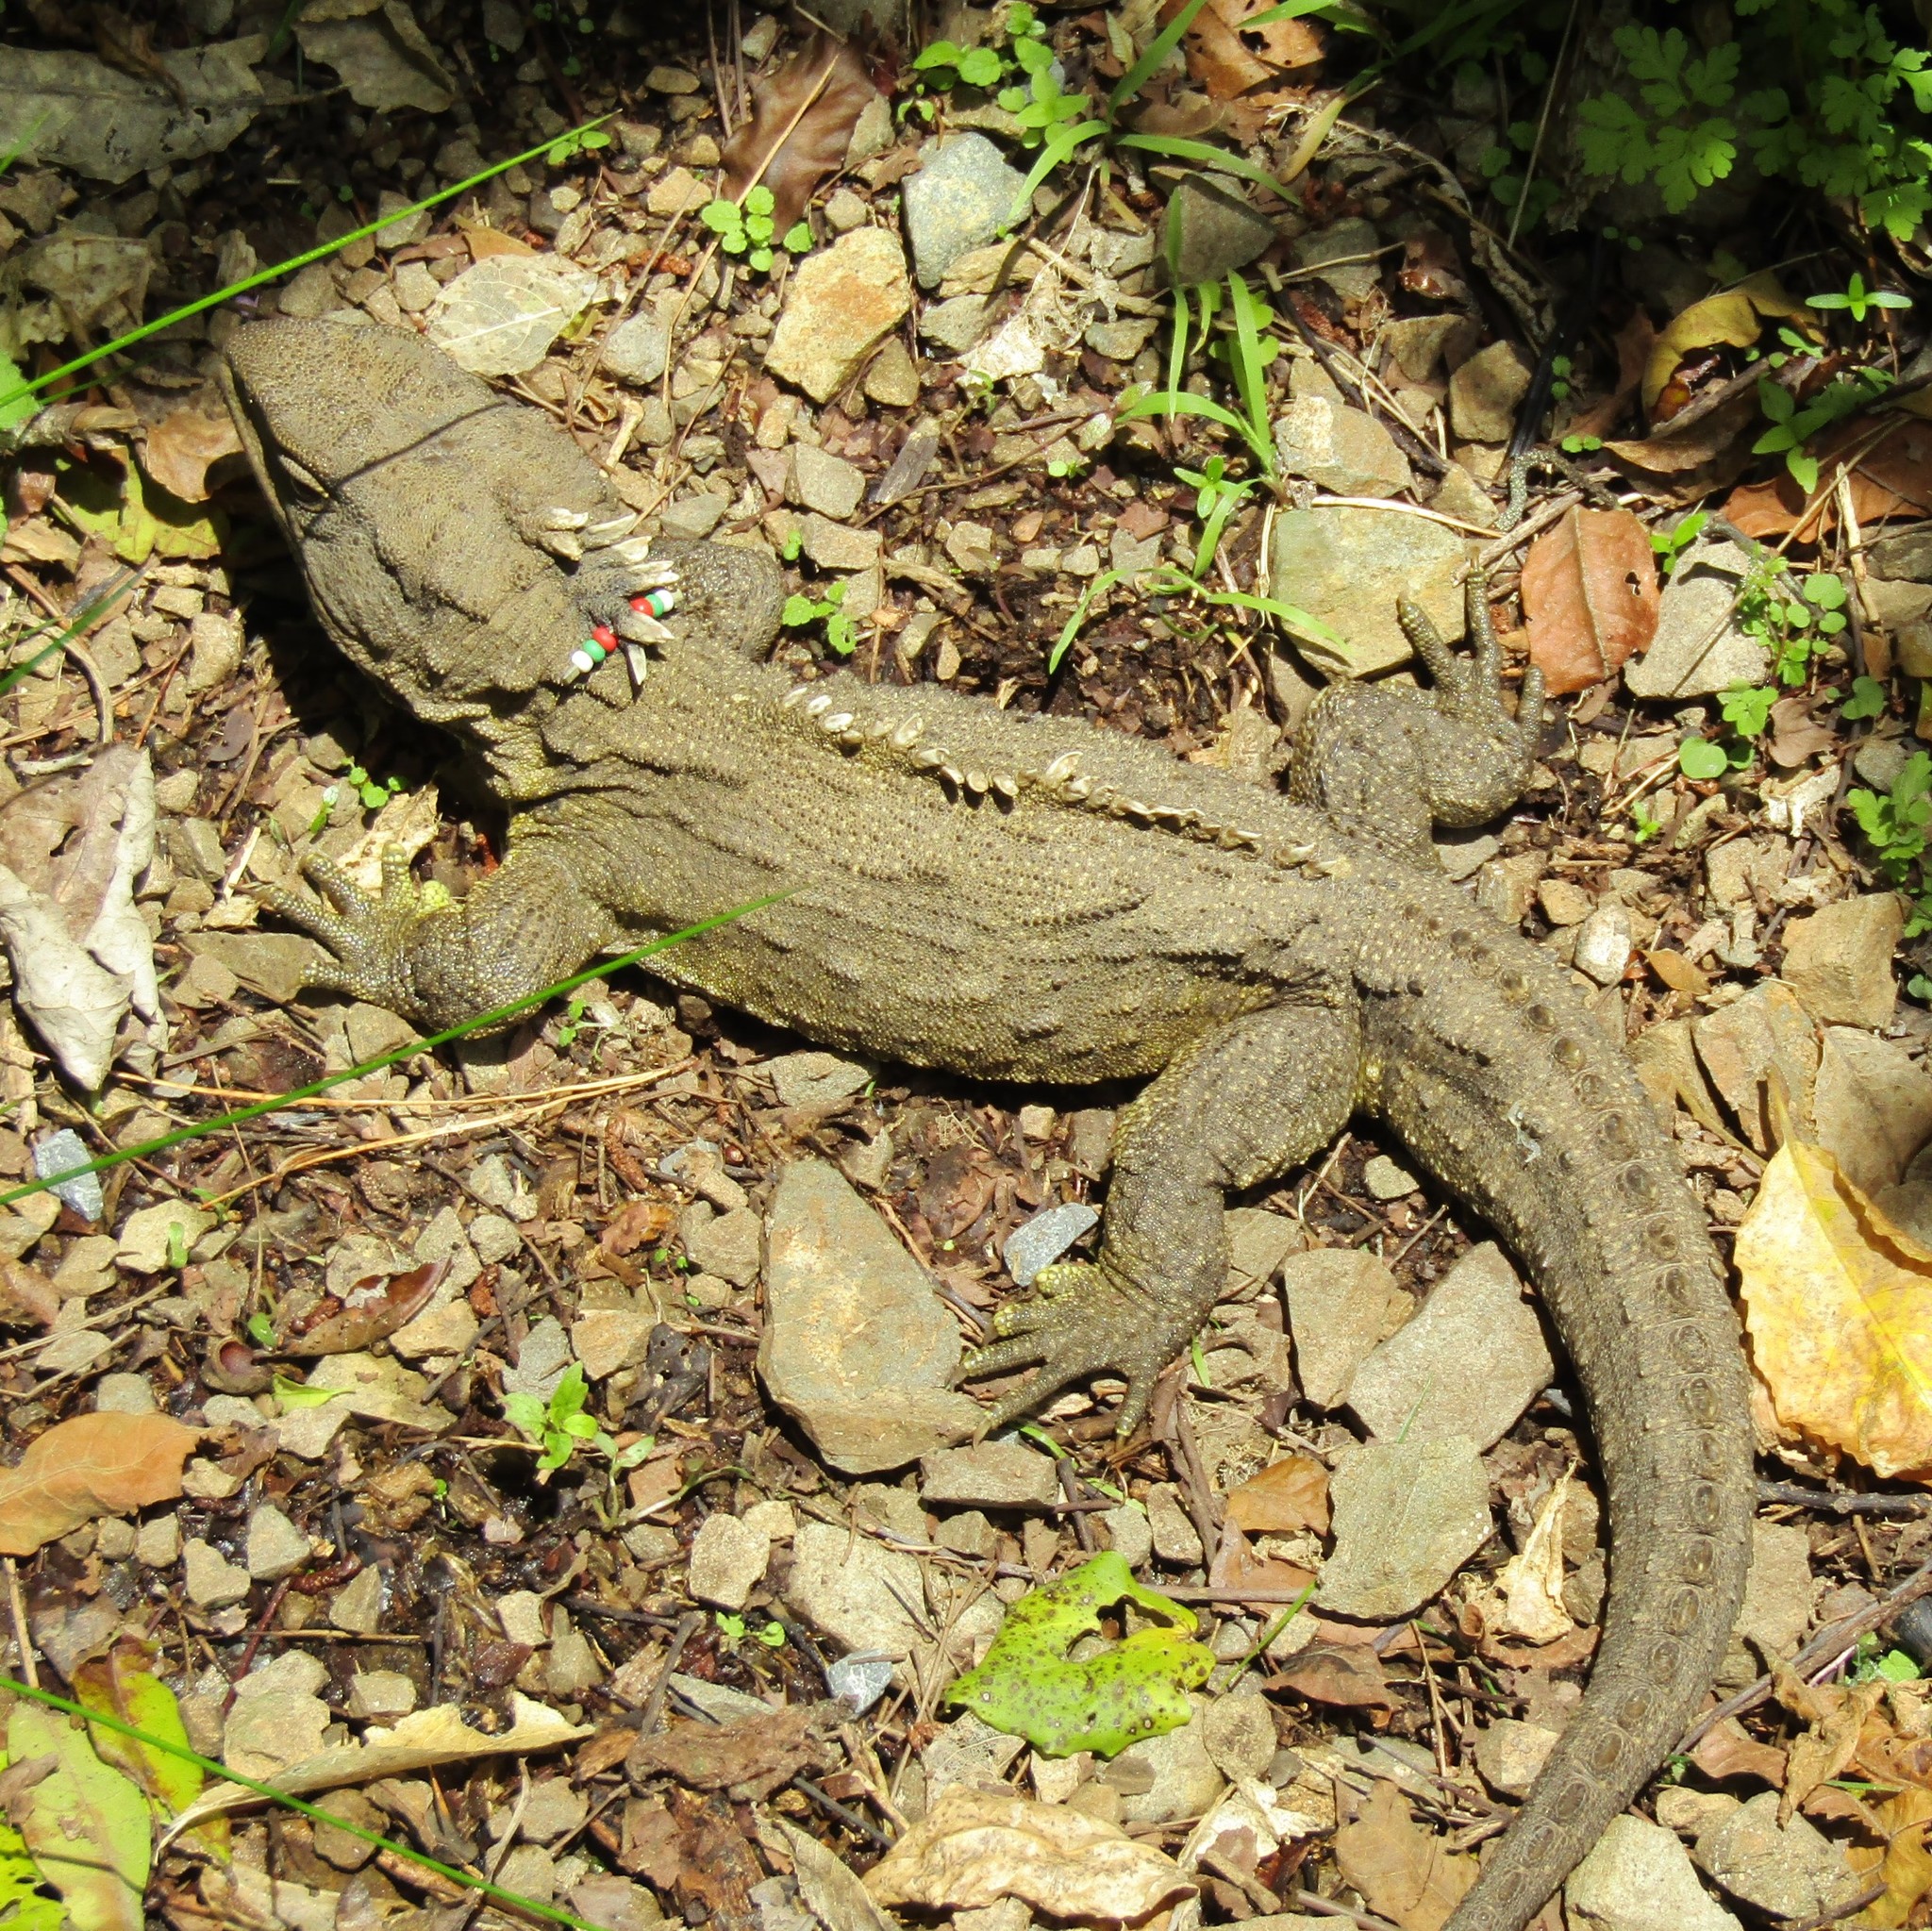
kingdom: Animalia
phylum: Chordata
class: Sphenodontia
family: Sphenodontidae
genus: Sphenodon
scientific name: Sphenodon punctatus
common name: Tuatara
